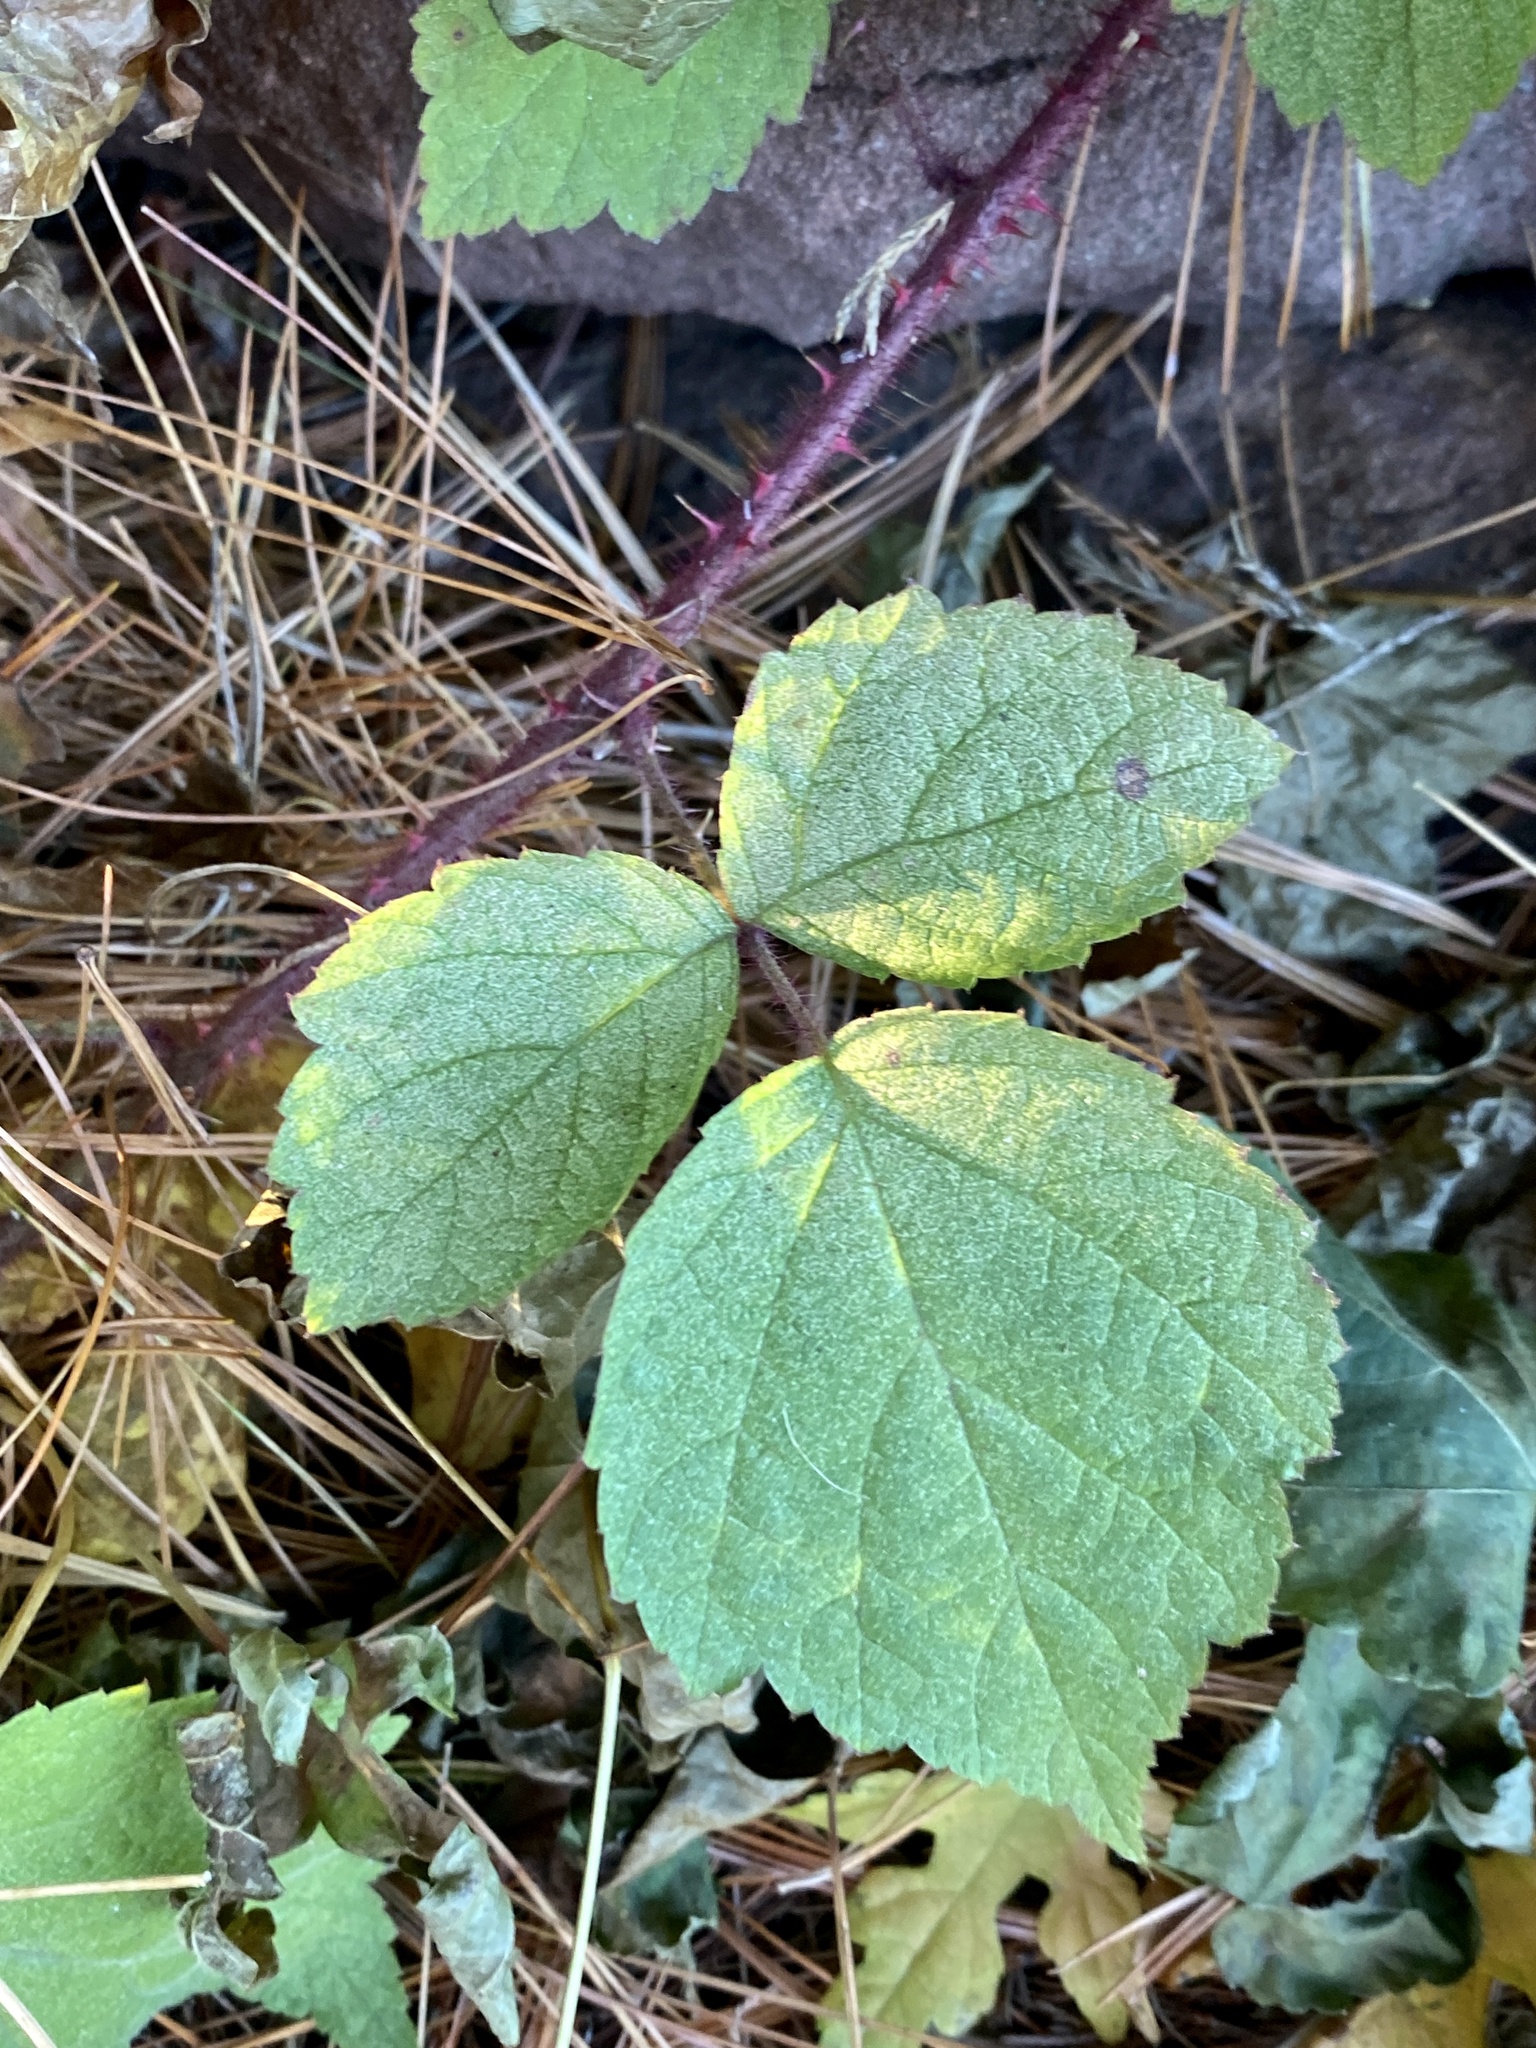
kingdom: Plantae
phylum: Tracheophyta
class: Magnoliopsida
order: Rosales
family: Rosaceae
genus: Rubus
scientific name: Rubus phoenicolasius
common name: Japanese wineberry
